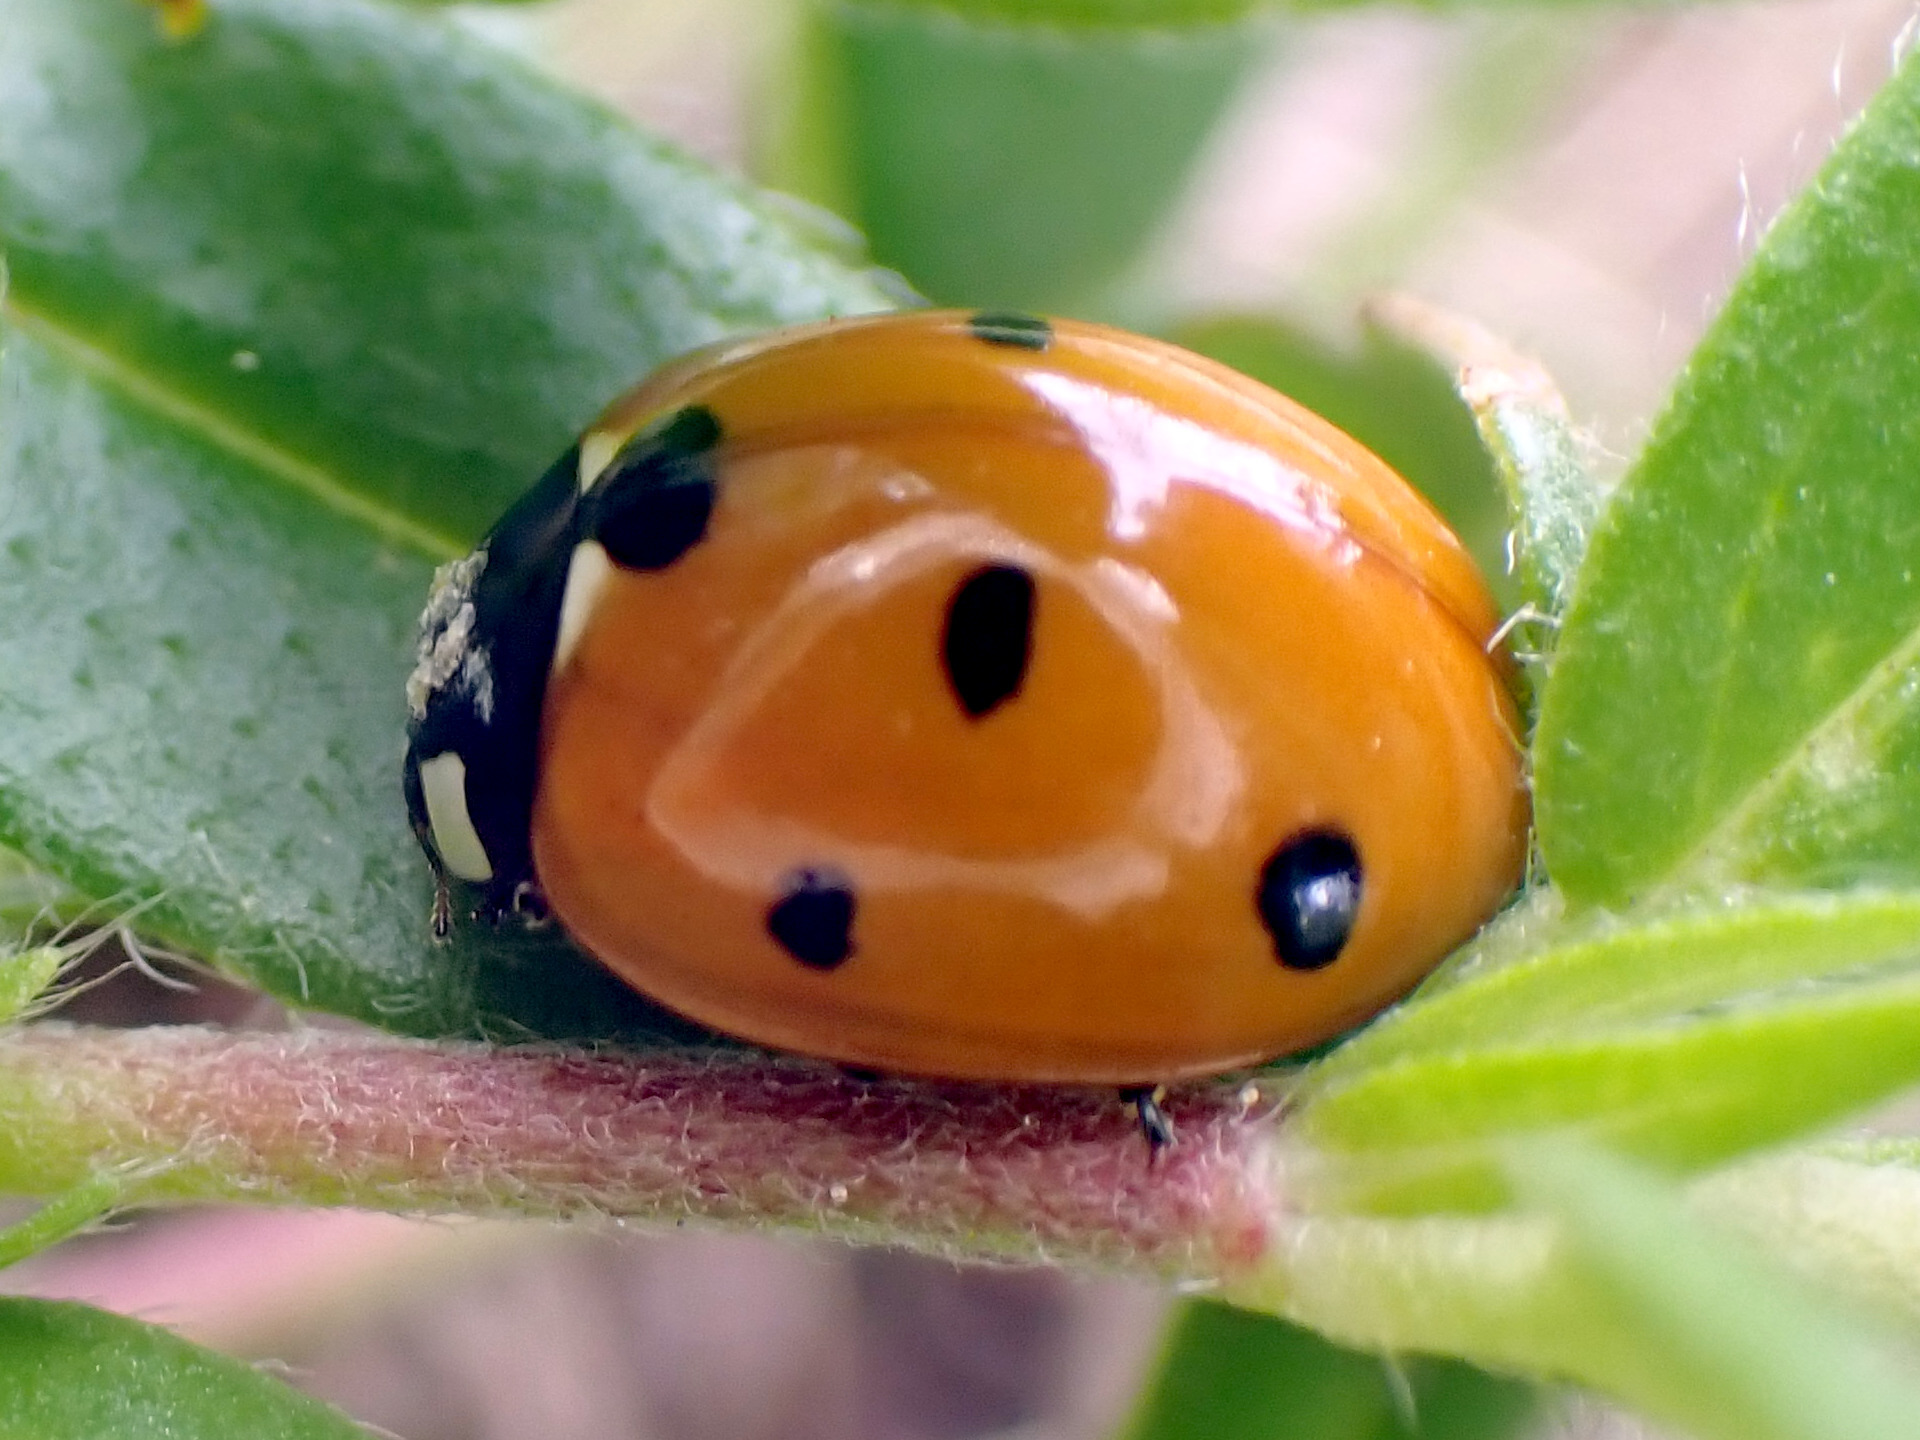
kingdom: Animalia
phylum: Arthropoda
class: Insecta
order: Coleoptera
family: Coccinellidae
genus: Coccinella
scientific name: Coccinella septempunctata
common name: Sevenspotted lady beetle
